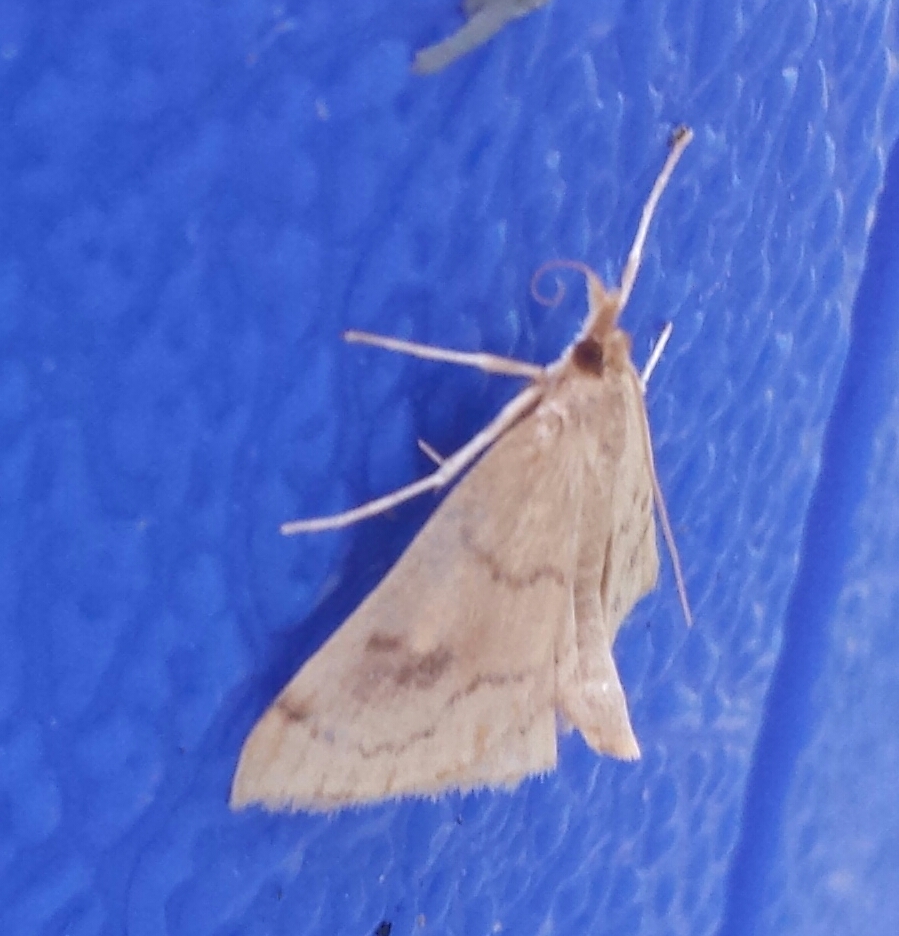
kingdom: Animalia
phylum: Arthropoda
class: Insecta
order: Lepidoptera
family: Crambidae
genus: Fumibotys
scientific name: Fumibotys fumalis
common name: Mint root borer moth
